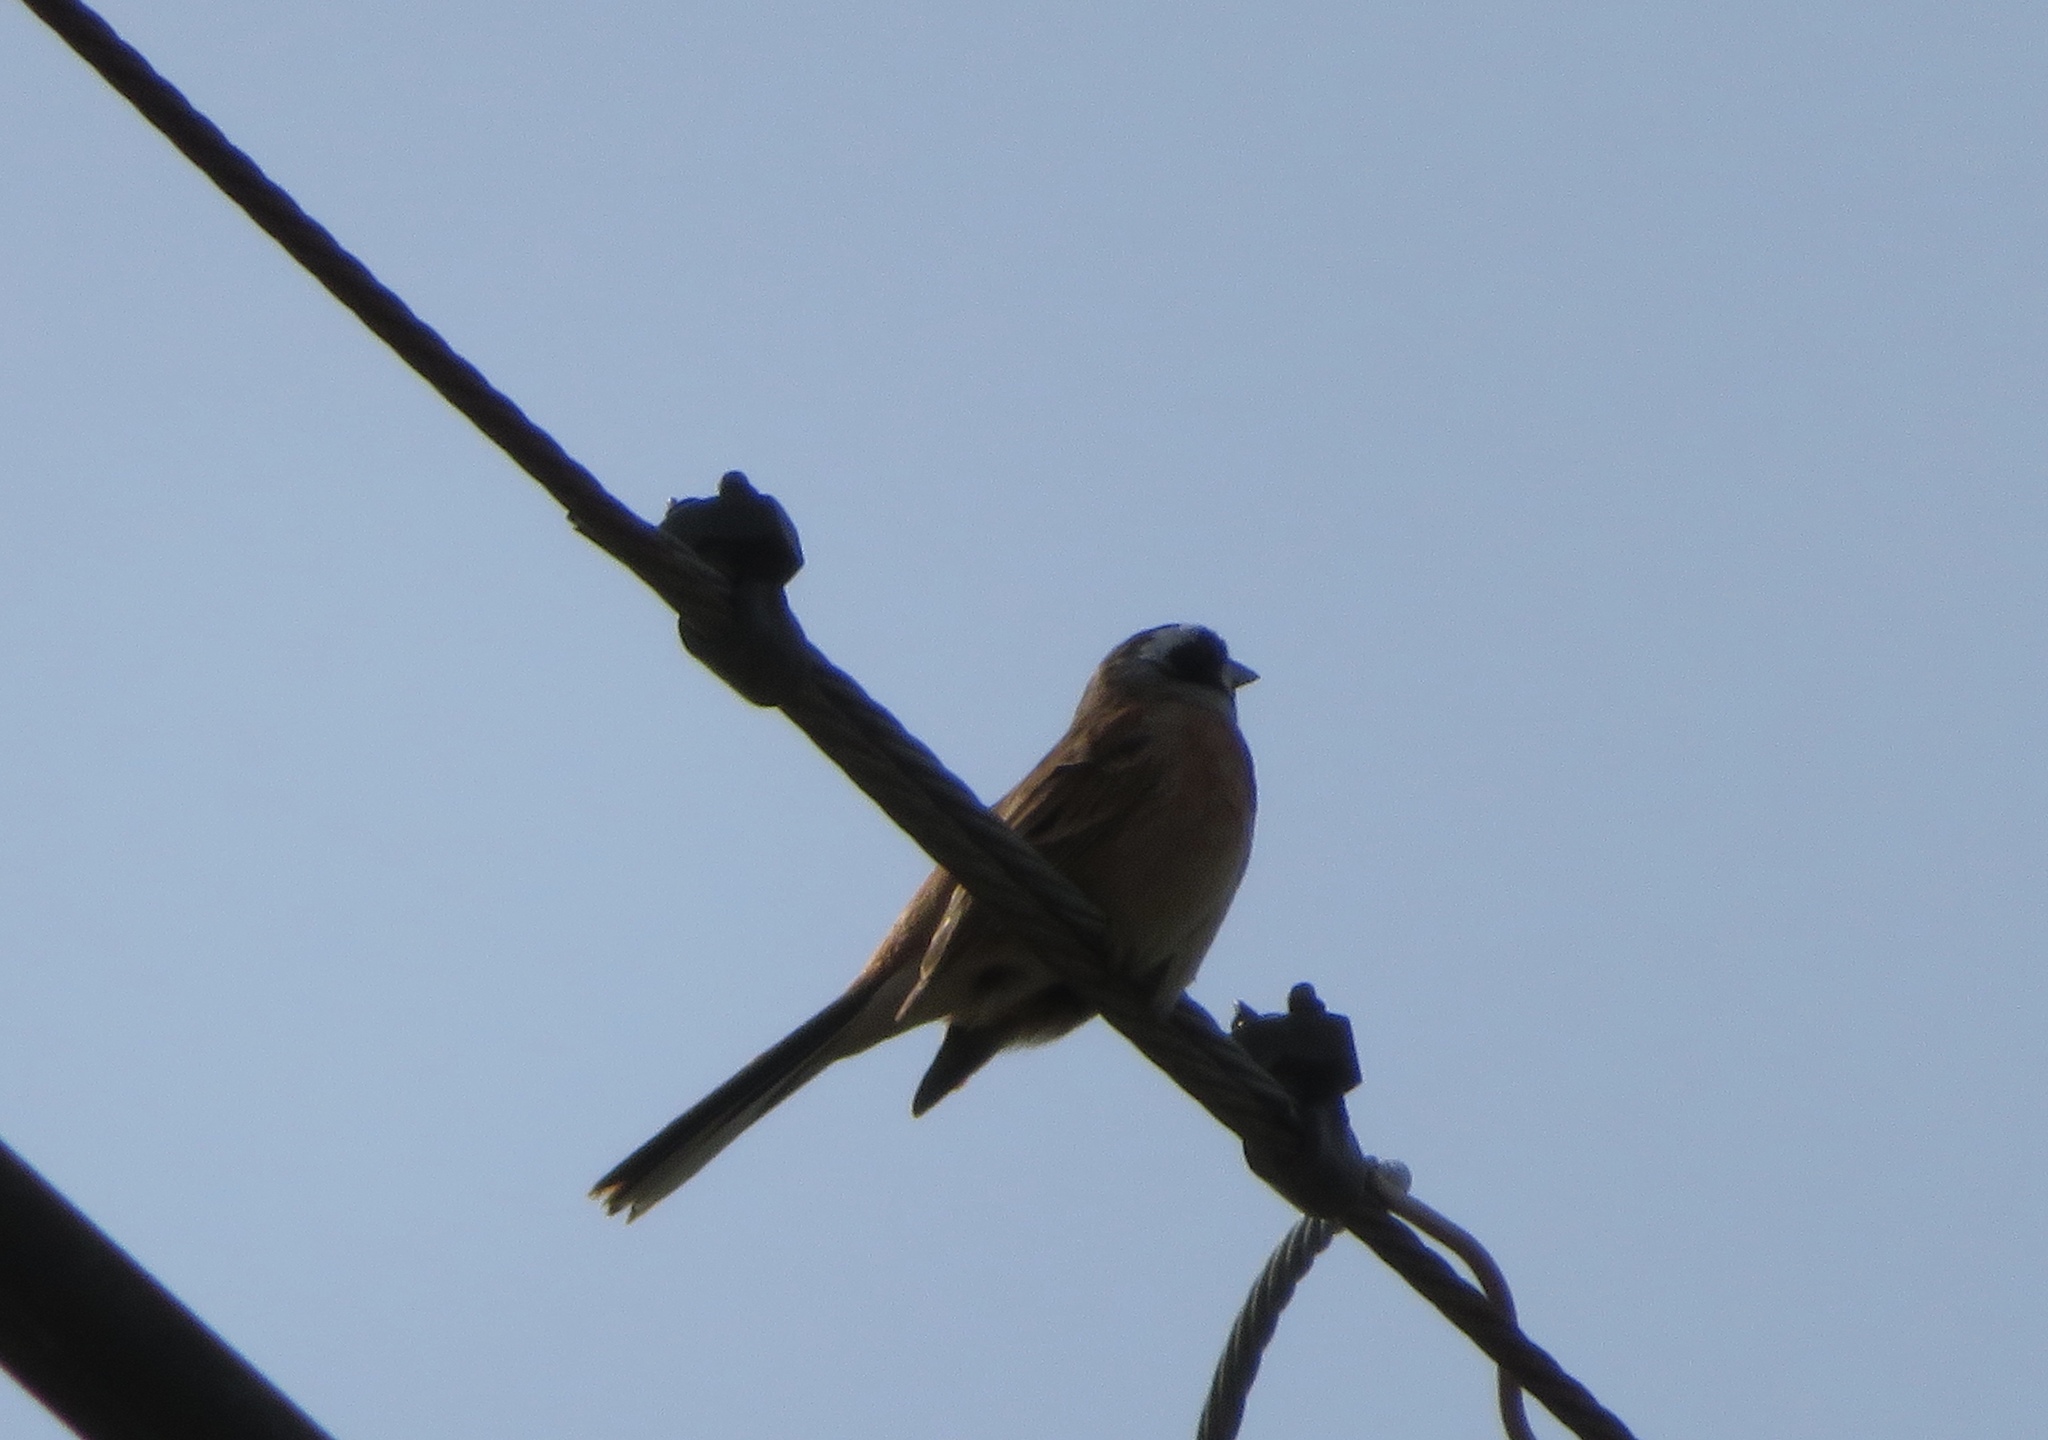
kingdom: Animalia
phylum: Chordata
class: Aves
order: Passeriformes
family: Emberizidae
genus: Emberiza
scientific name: Emberiza cioides
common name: Meadow bunting
